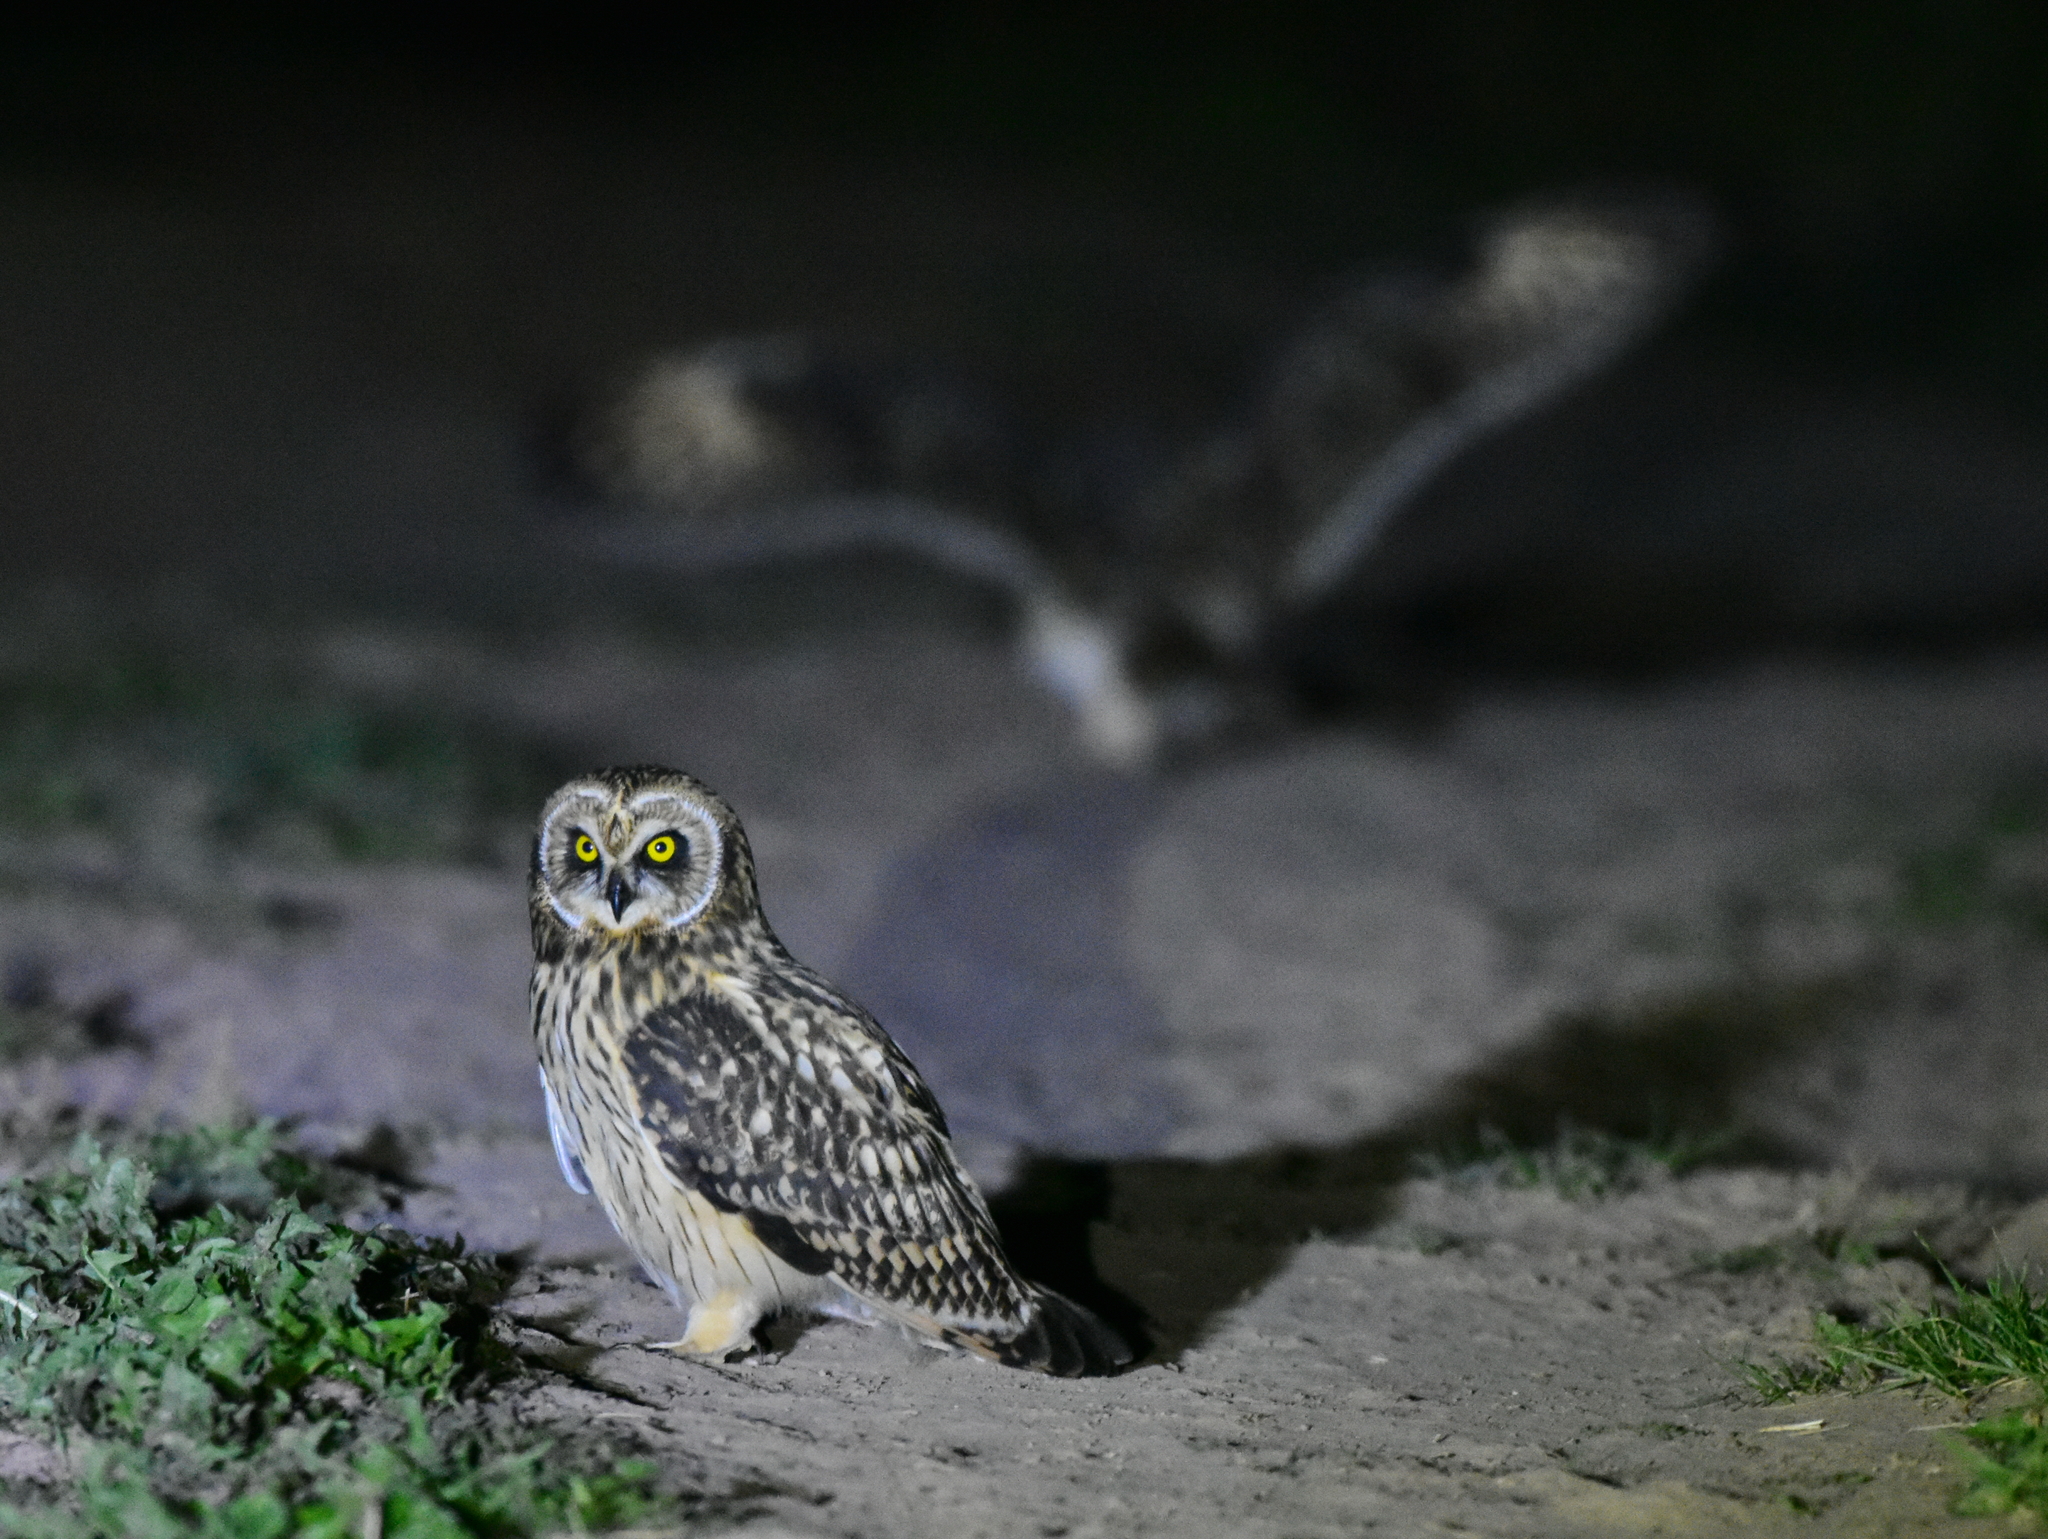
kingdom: Animalia
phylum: Chordata
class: Aves
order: Strigiformes
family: Strigidae
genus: Asio
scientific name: Asio flammeus
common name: Short-eared owl
